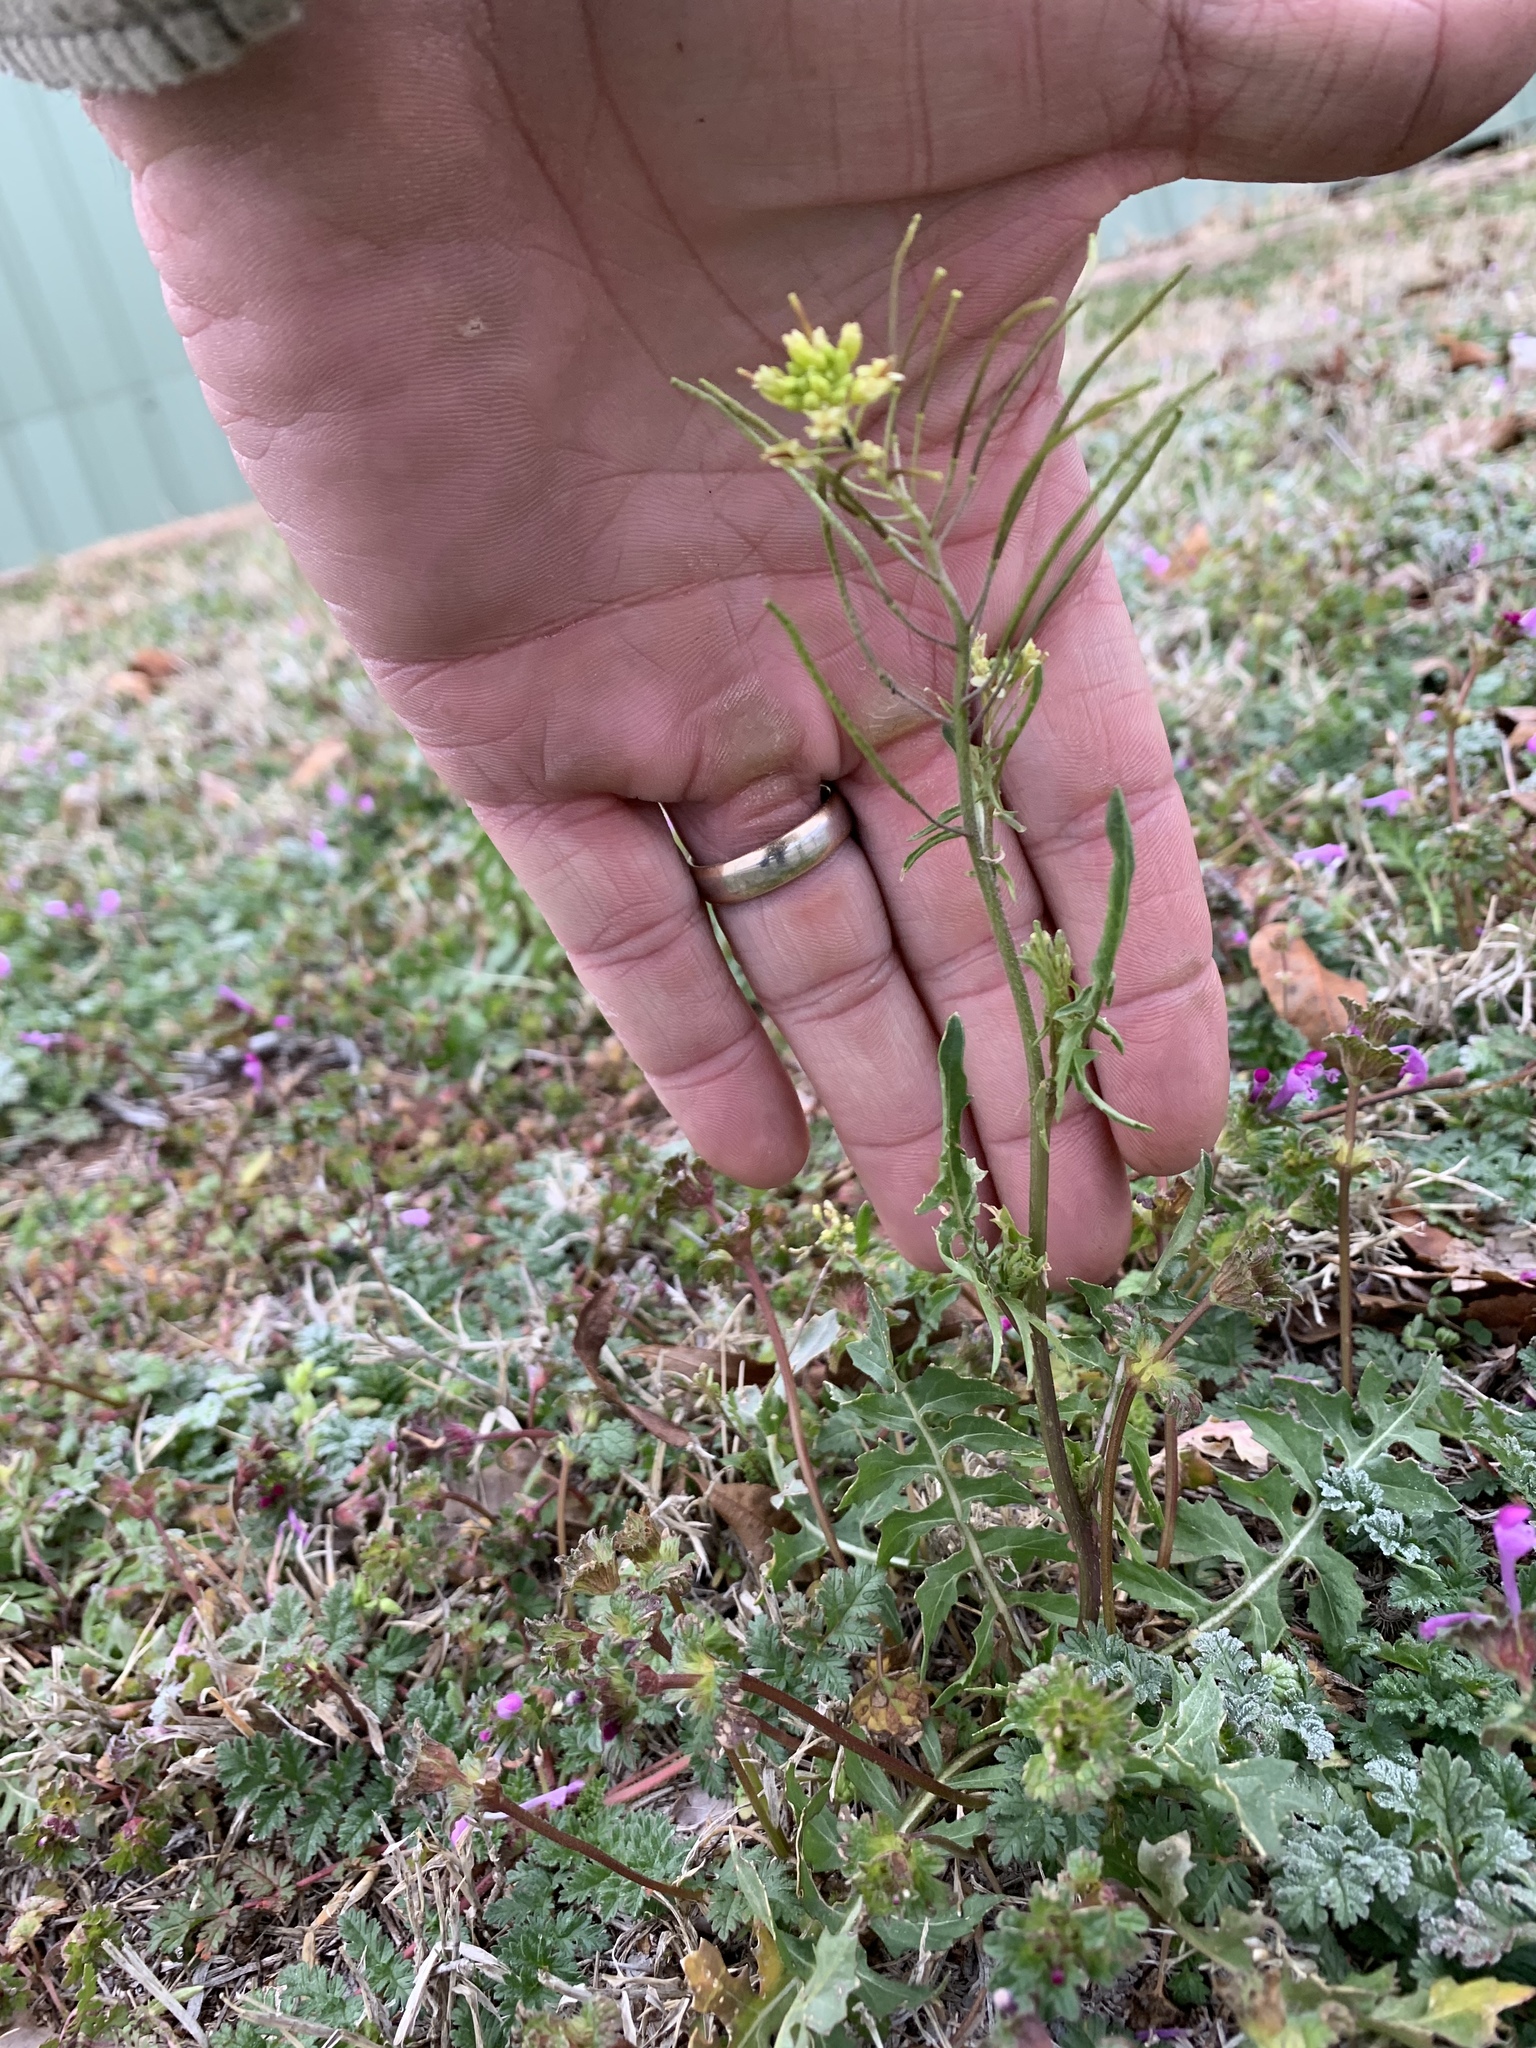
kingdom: Plantae
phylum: Tracheophyta
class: Magnoliopsida
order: Brassicales
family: Brassicaceae
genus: Sisymbrium
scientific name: Sisymbrium irio
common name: London rocket
